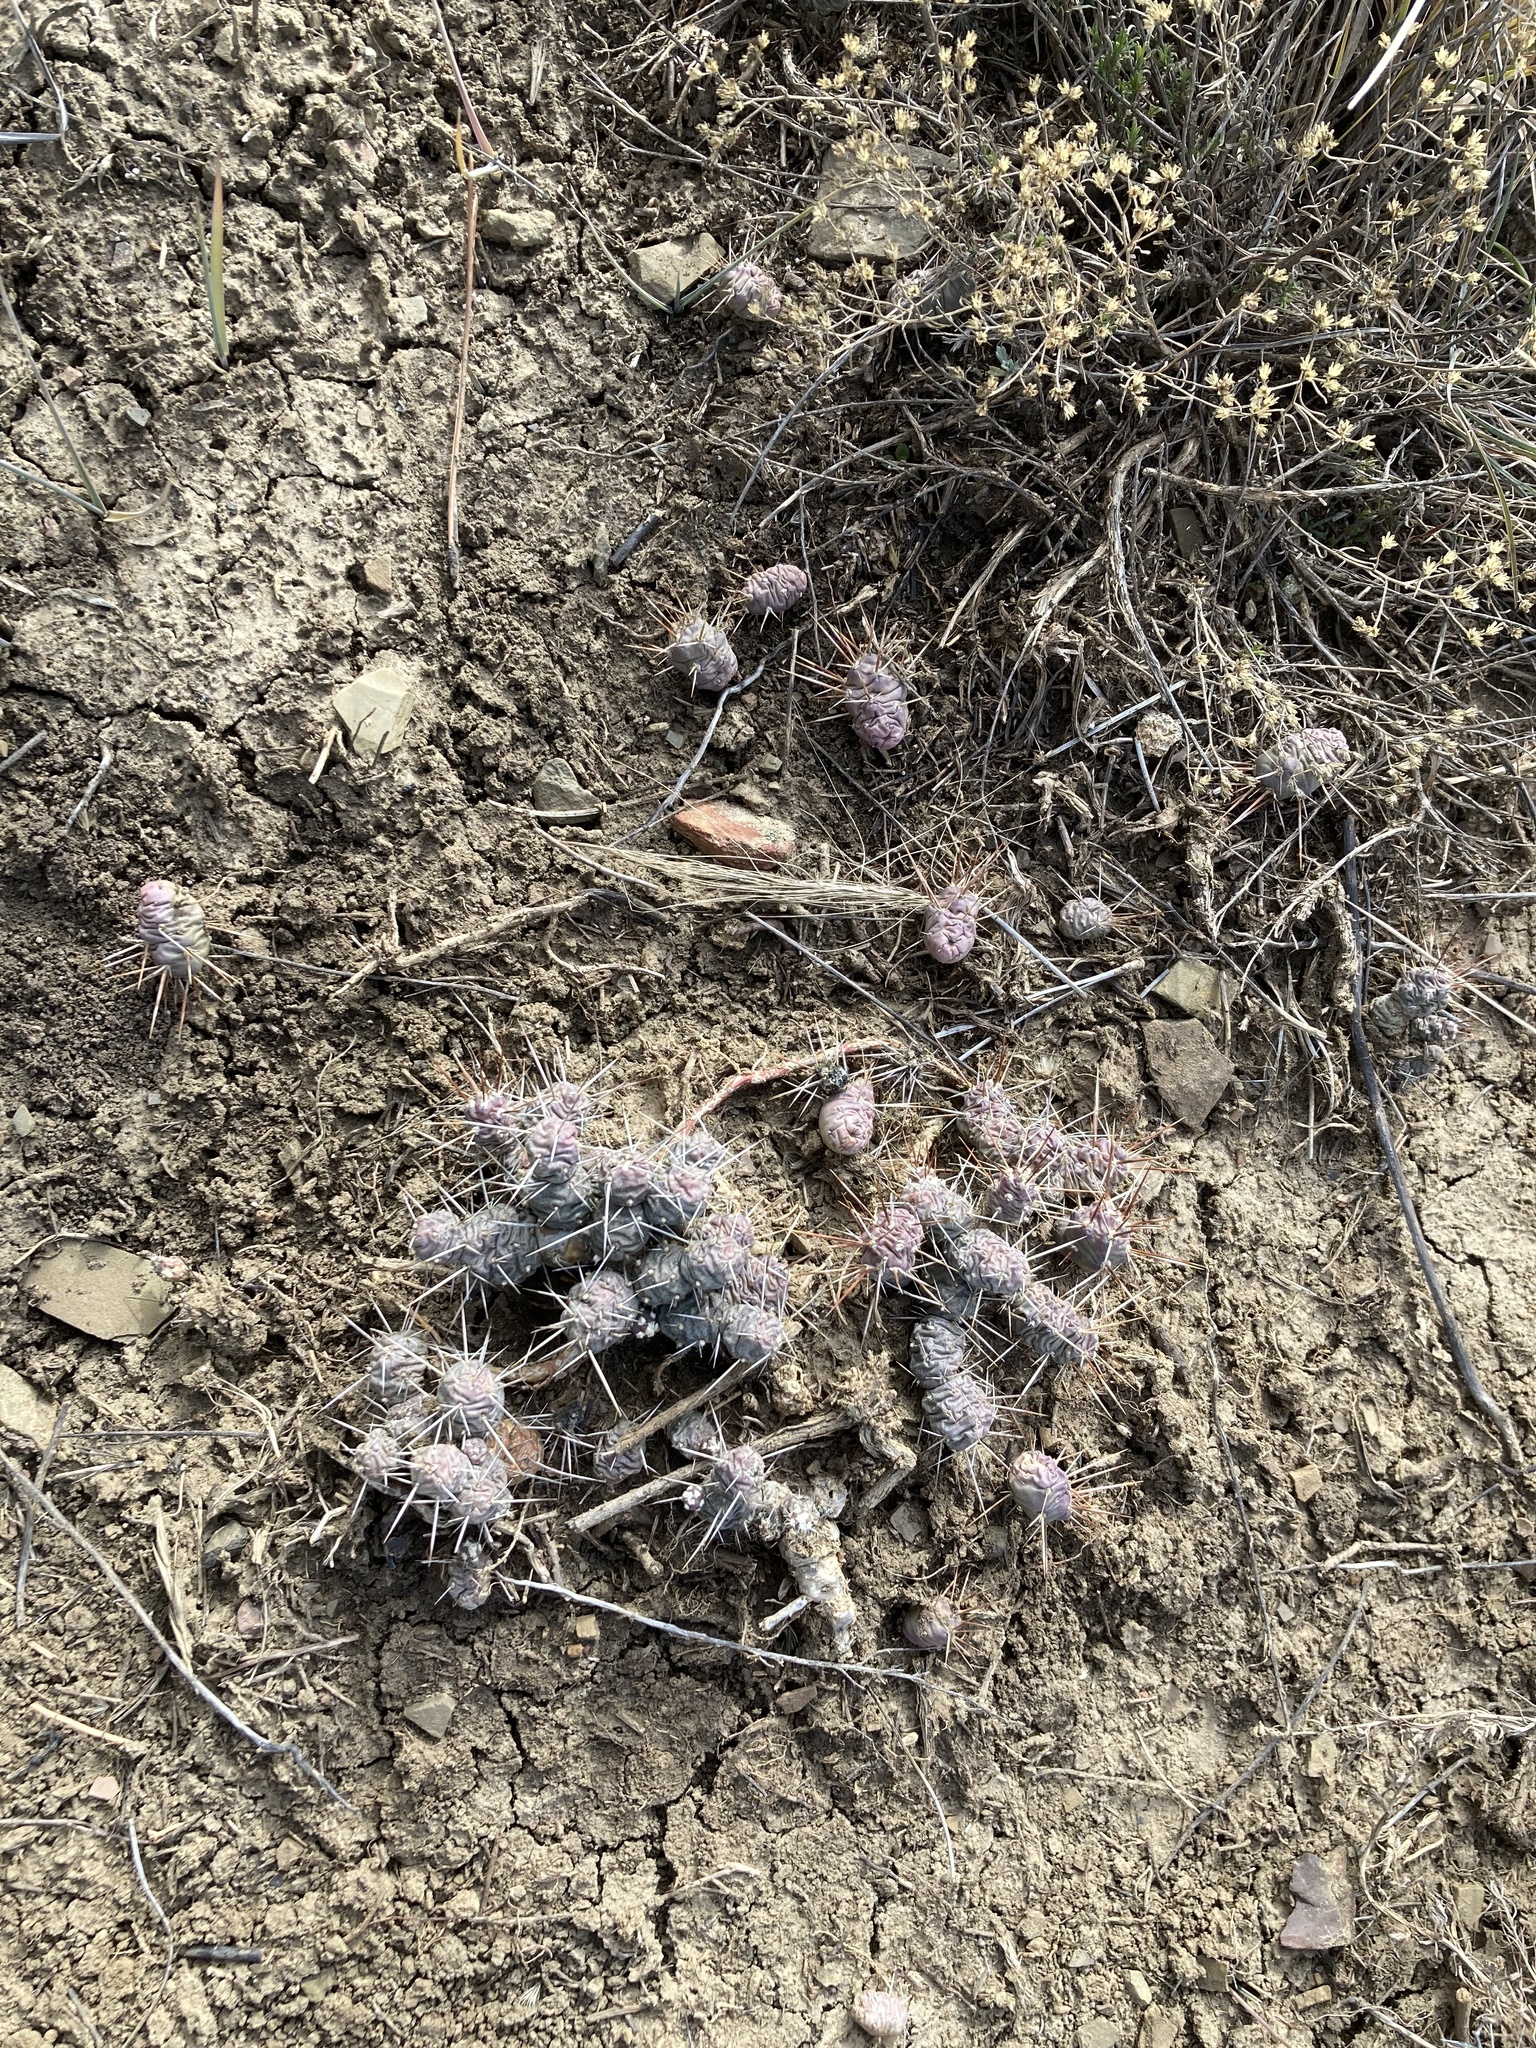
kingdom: Plantae
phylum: Tracheophyta
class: Magnoliopsida
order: Caryophyllales
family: Cactaceae
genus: Opuntia
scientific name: Opuntia fragilis
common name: Brittle cactus
